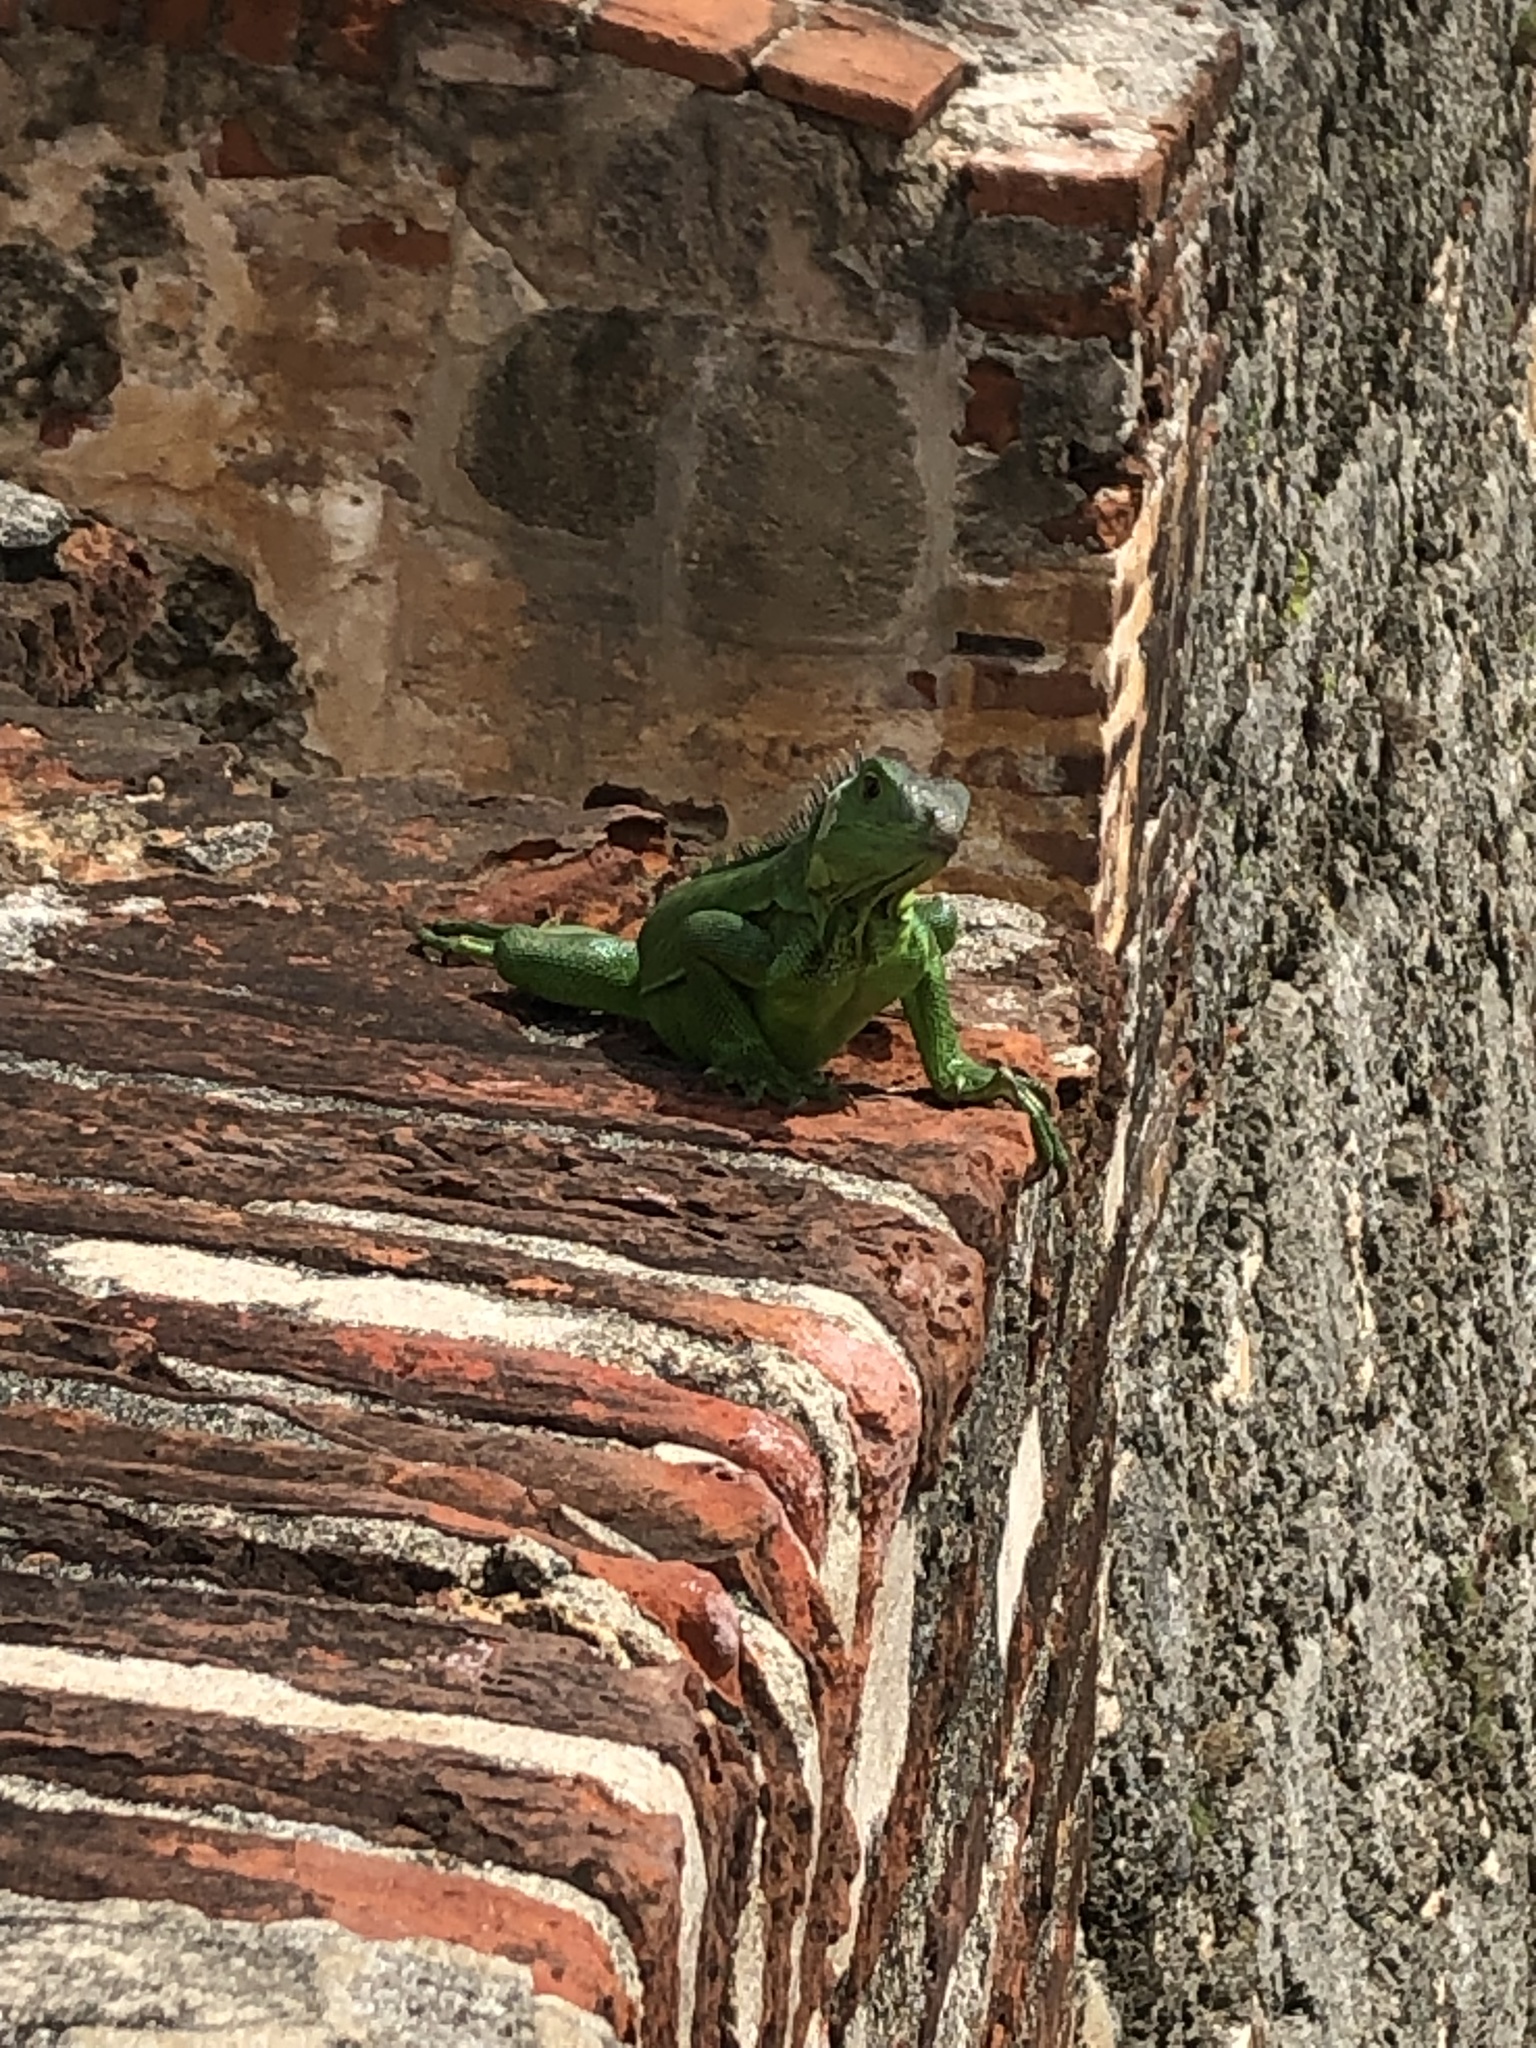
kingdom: Animalia
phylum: Chordata
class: Squamata
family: Iguanidae
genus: Iguana
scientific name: Iguana iguana
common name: Green iguana
